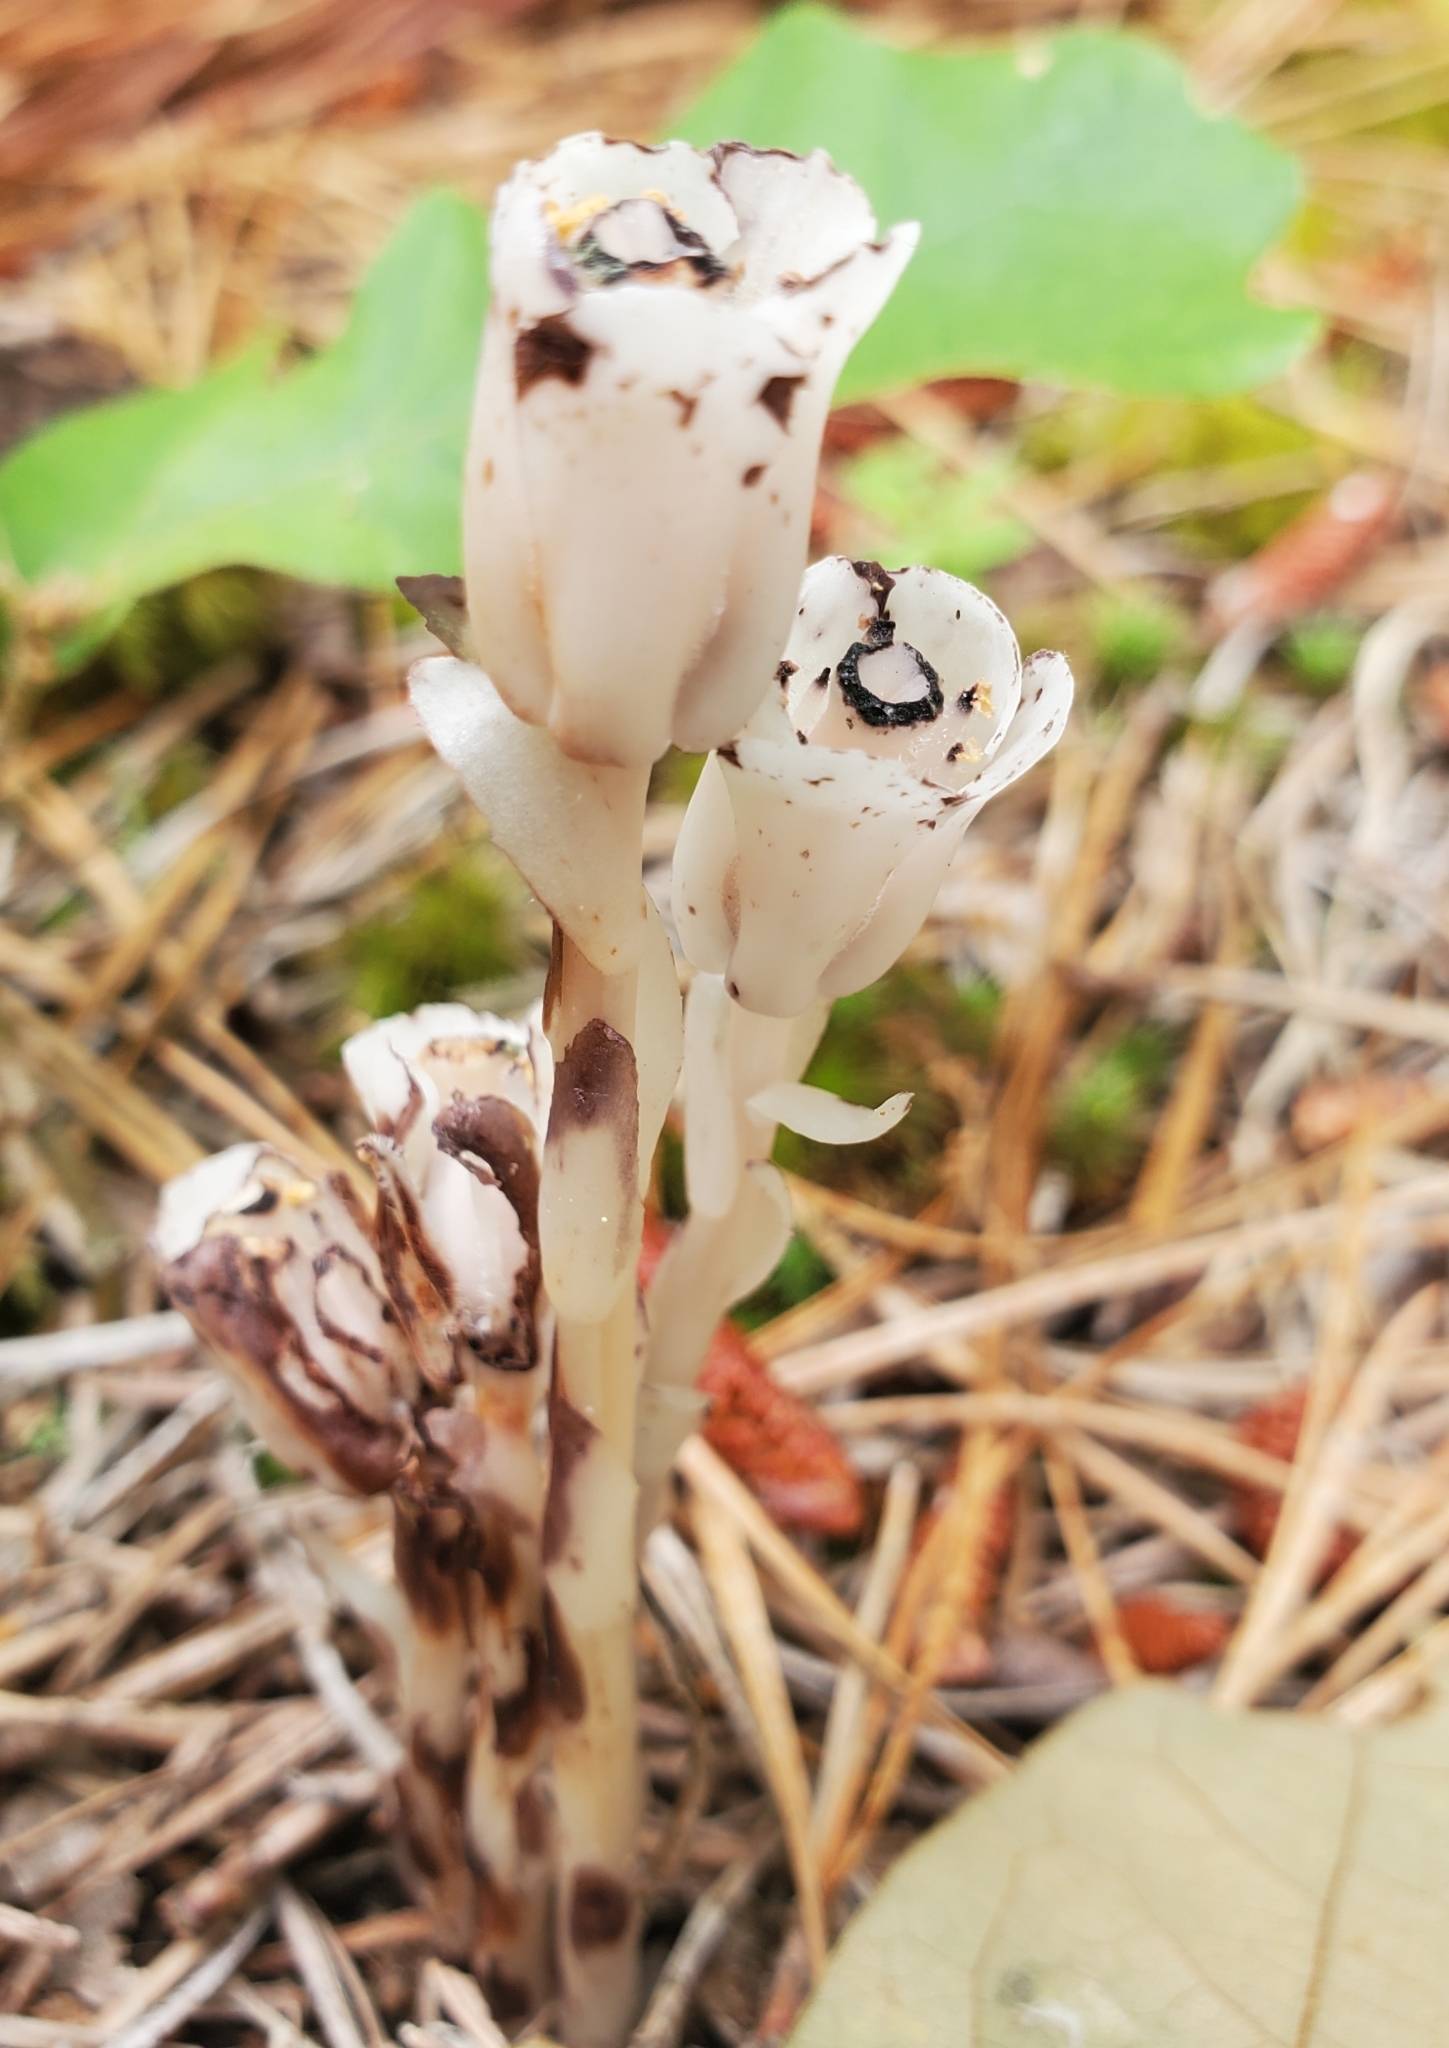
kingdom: Plantae
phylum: Tracheophyta
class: Magnoliopsida
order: Ericales
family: Ericaceae
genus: Monotropa
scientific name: Monotropa uniflora
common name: Convulsion root
